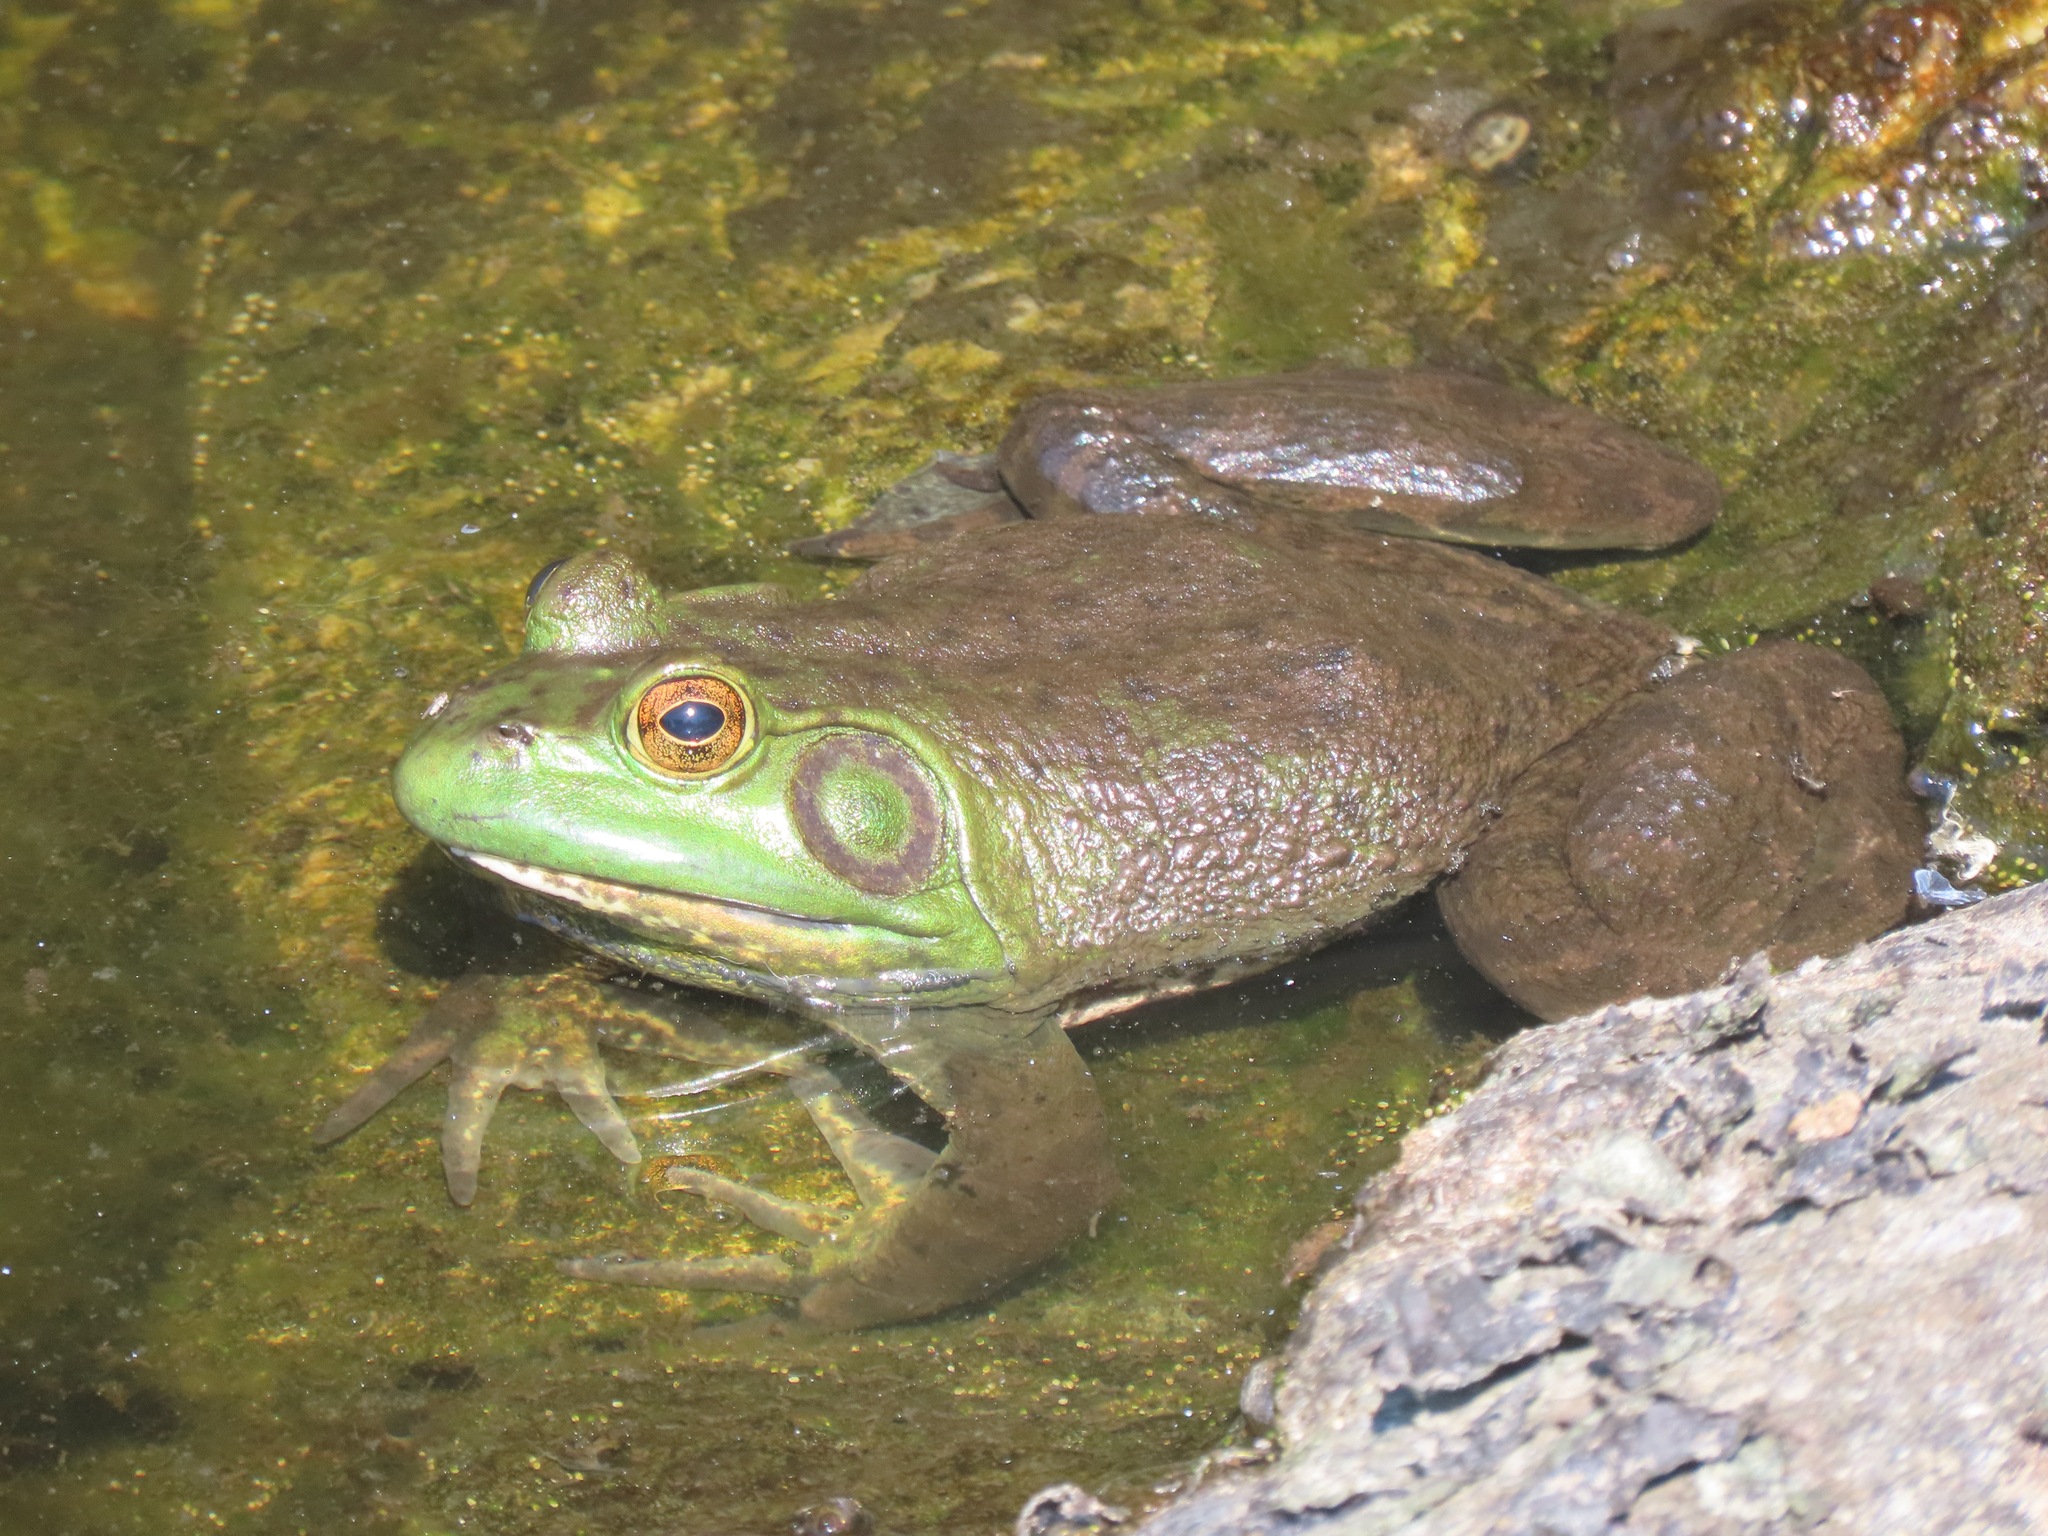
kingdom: Animalia
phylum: Chordata
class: Amphibia
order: Anura
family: Ranidae
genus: Lithobates
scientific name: Lithobates catesbeianus
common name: American bullfrog
